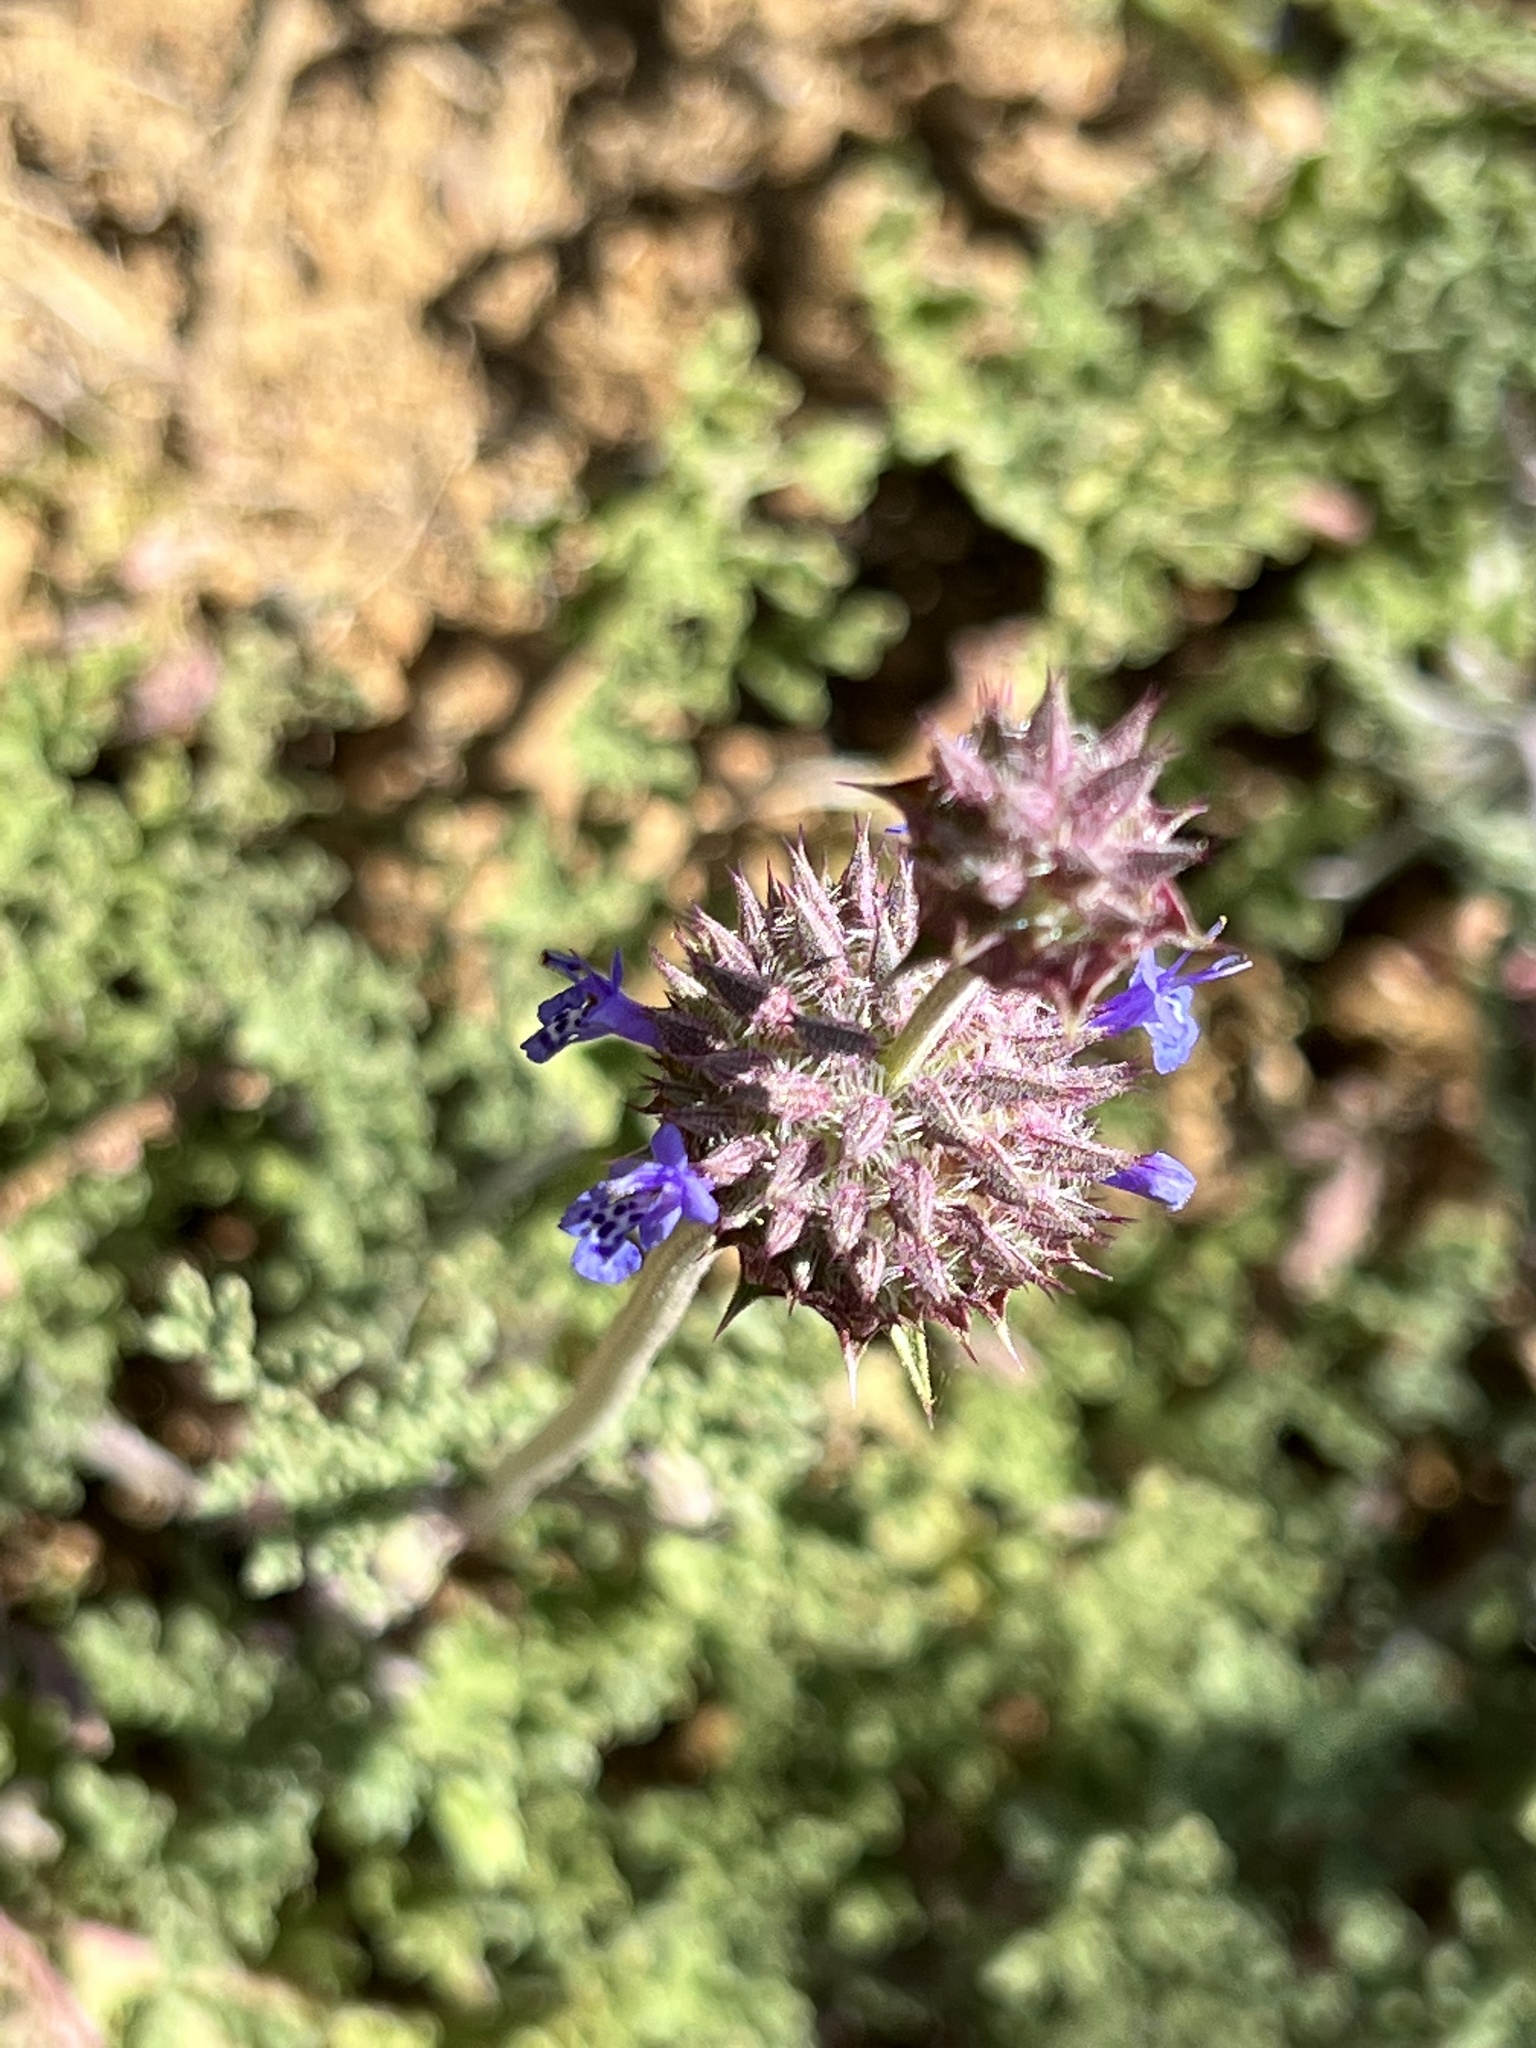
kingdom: Plantae
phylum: Tracheophyta
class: Magnoliopsida
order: Lamiales
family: Lamiaceae
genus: Salvia
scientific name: Salvia columbariae
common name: Chia
